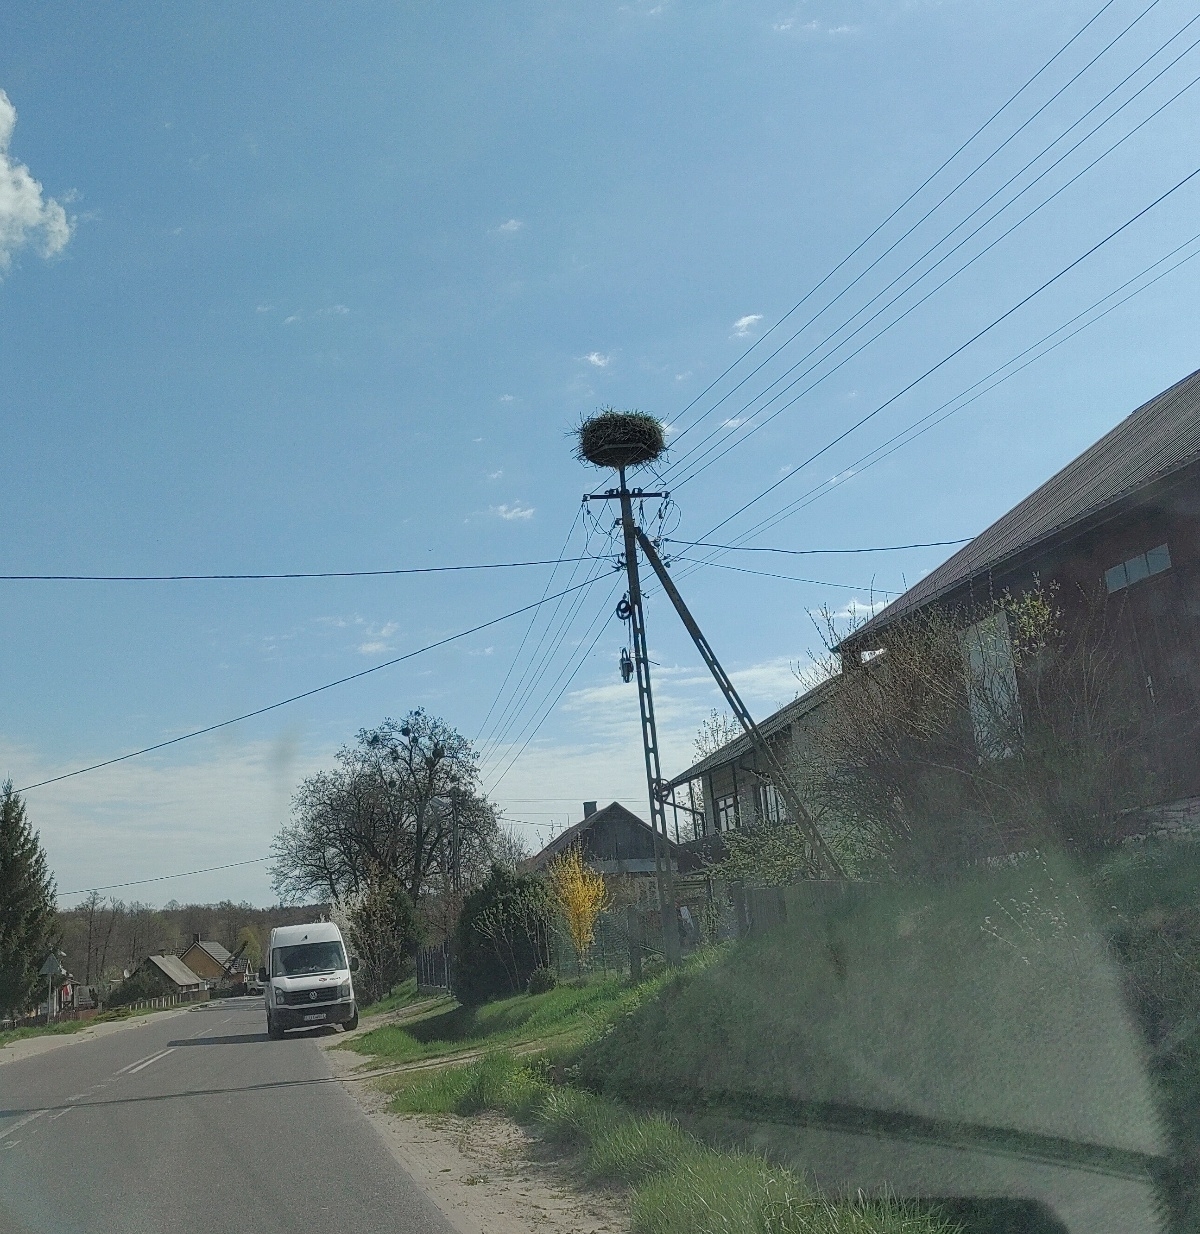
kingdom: Animalia
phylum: Chordata
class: Aves
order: Ciconiiformes
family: Ciconiidae
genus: Ciconia
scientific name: Ciconia ciconia
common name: White stork
